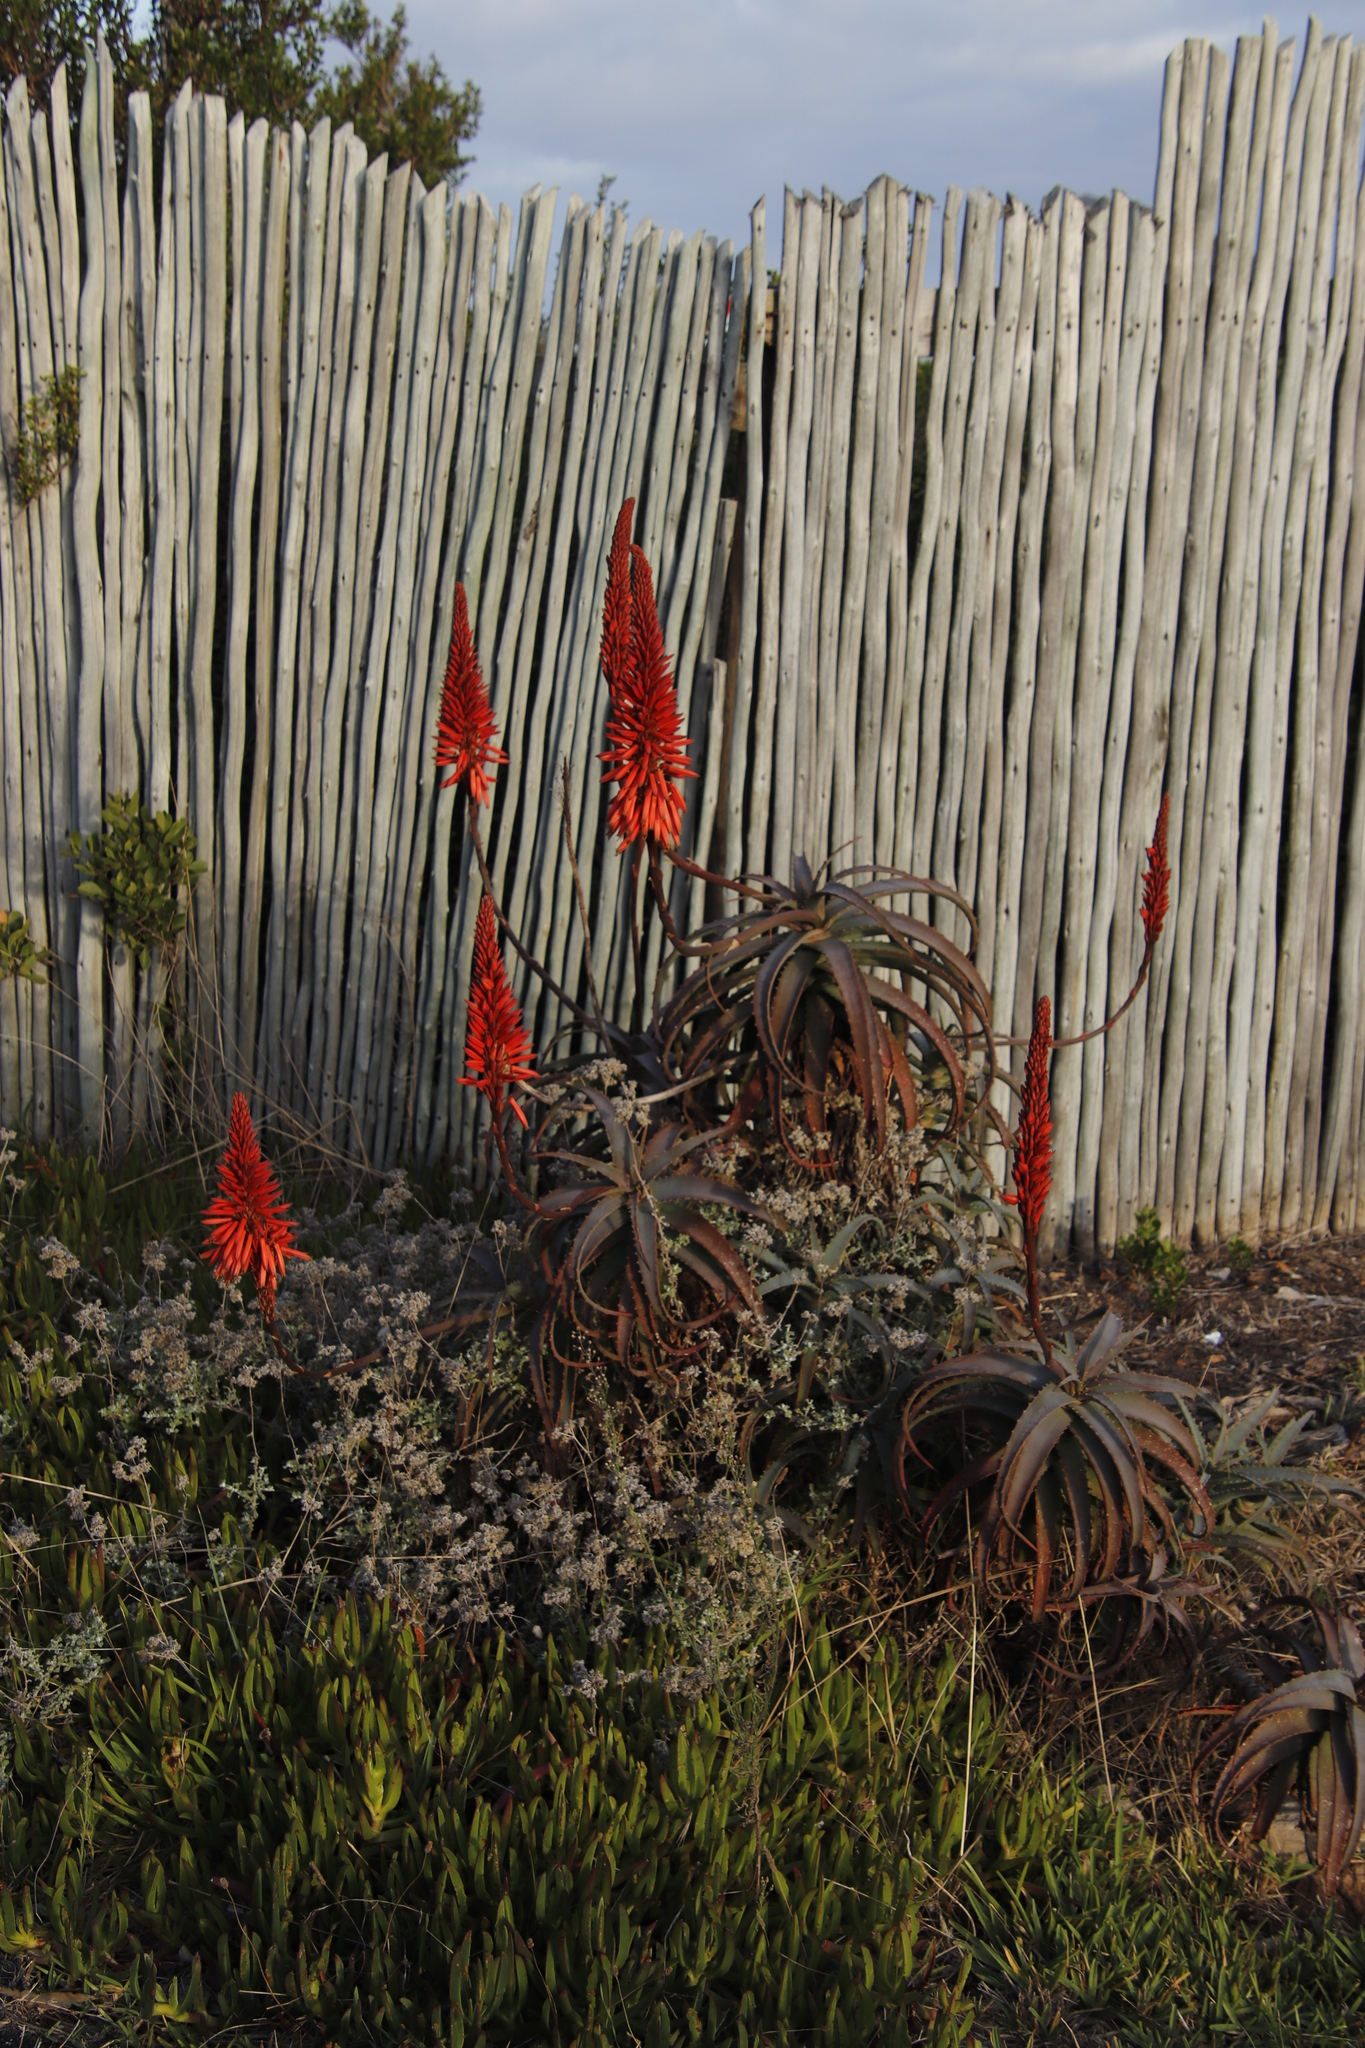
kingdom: Plantae
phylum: Tracheophyta
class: Liliopsida
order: Asparagales
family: Asphodelaceae
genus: Aloe
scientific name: Aloe arborescens
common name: Candelabra aloe
